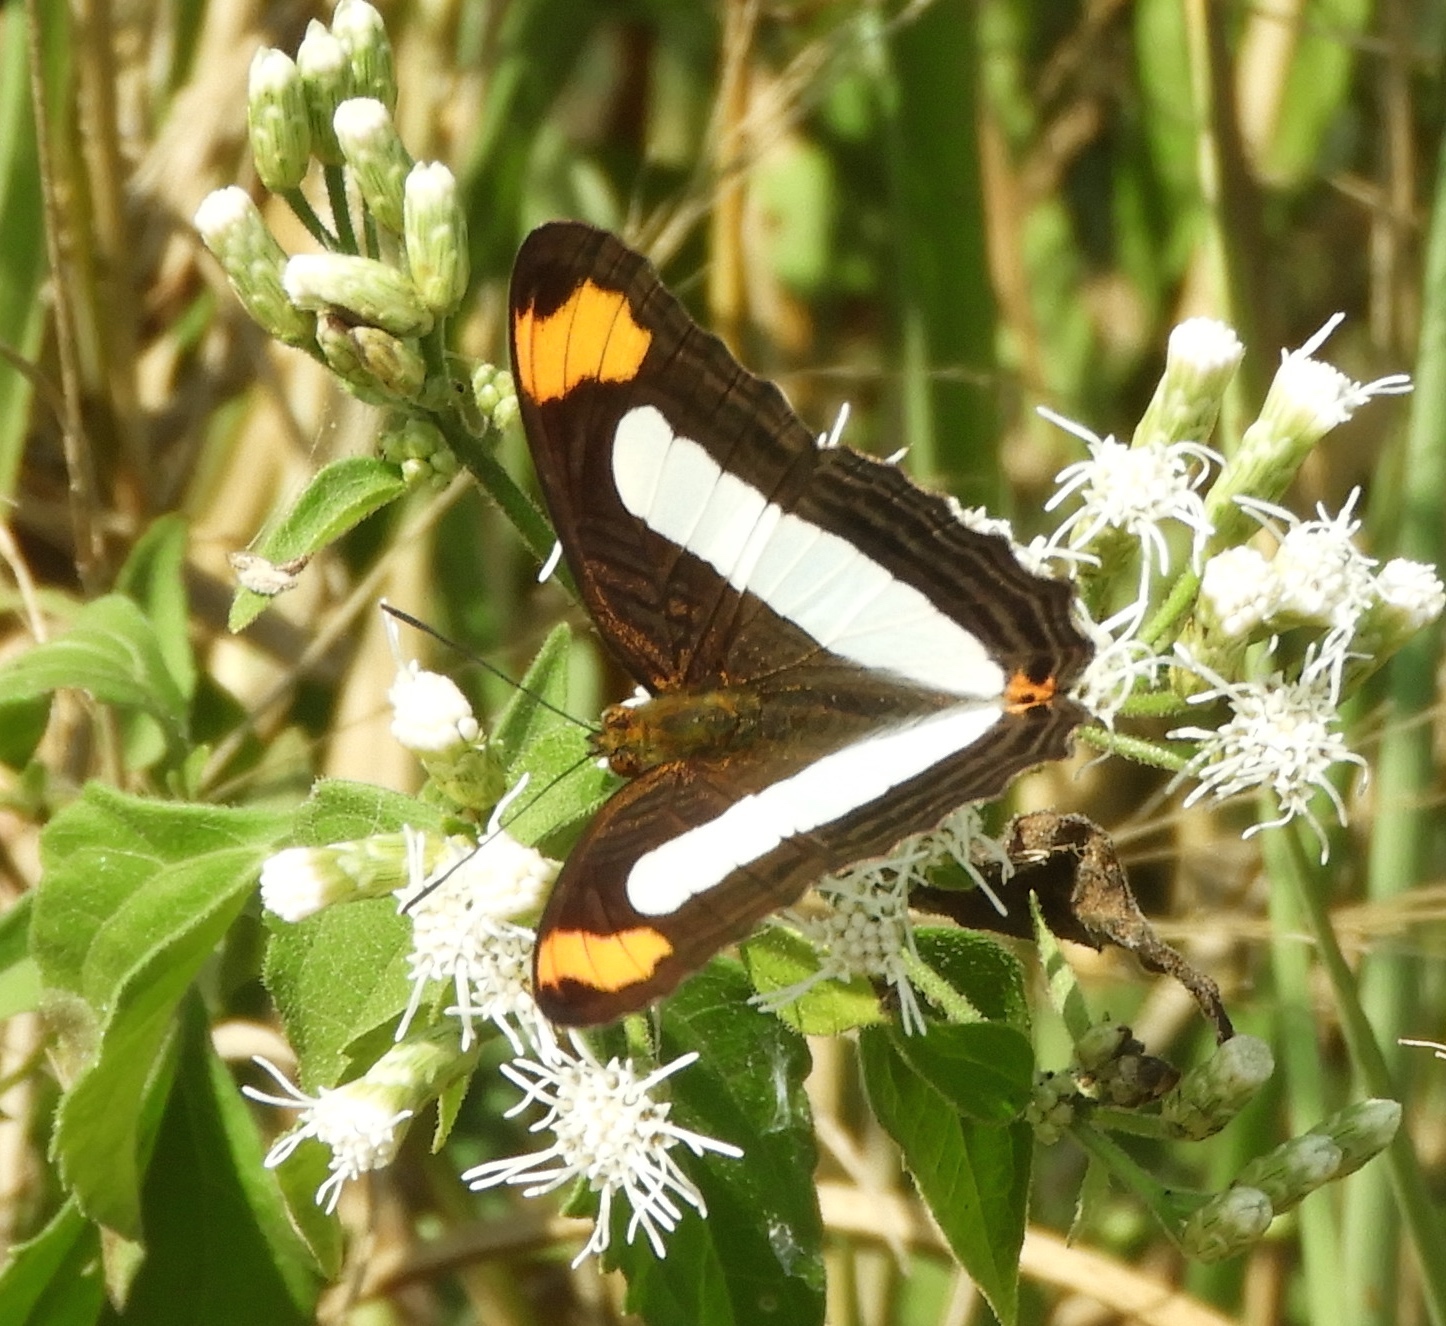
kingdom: Animalia
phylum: Arthropoda
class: Insecta
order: Lepidoptera
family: Nymphalidae
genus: Limenitis
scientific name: Limenitis iphiclus
